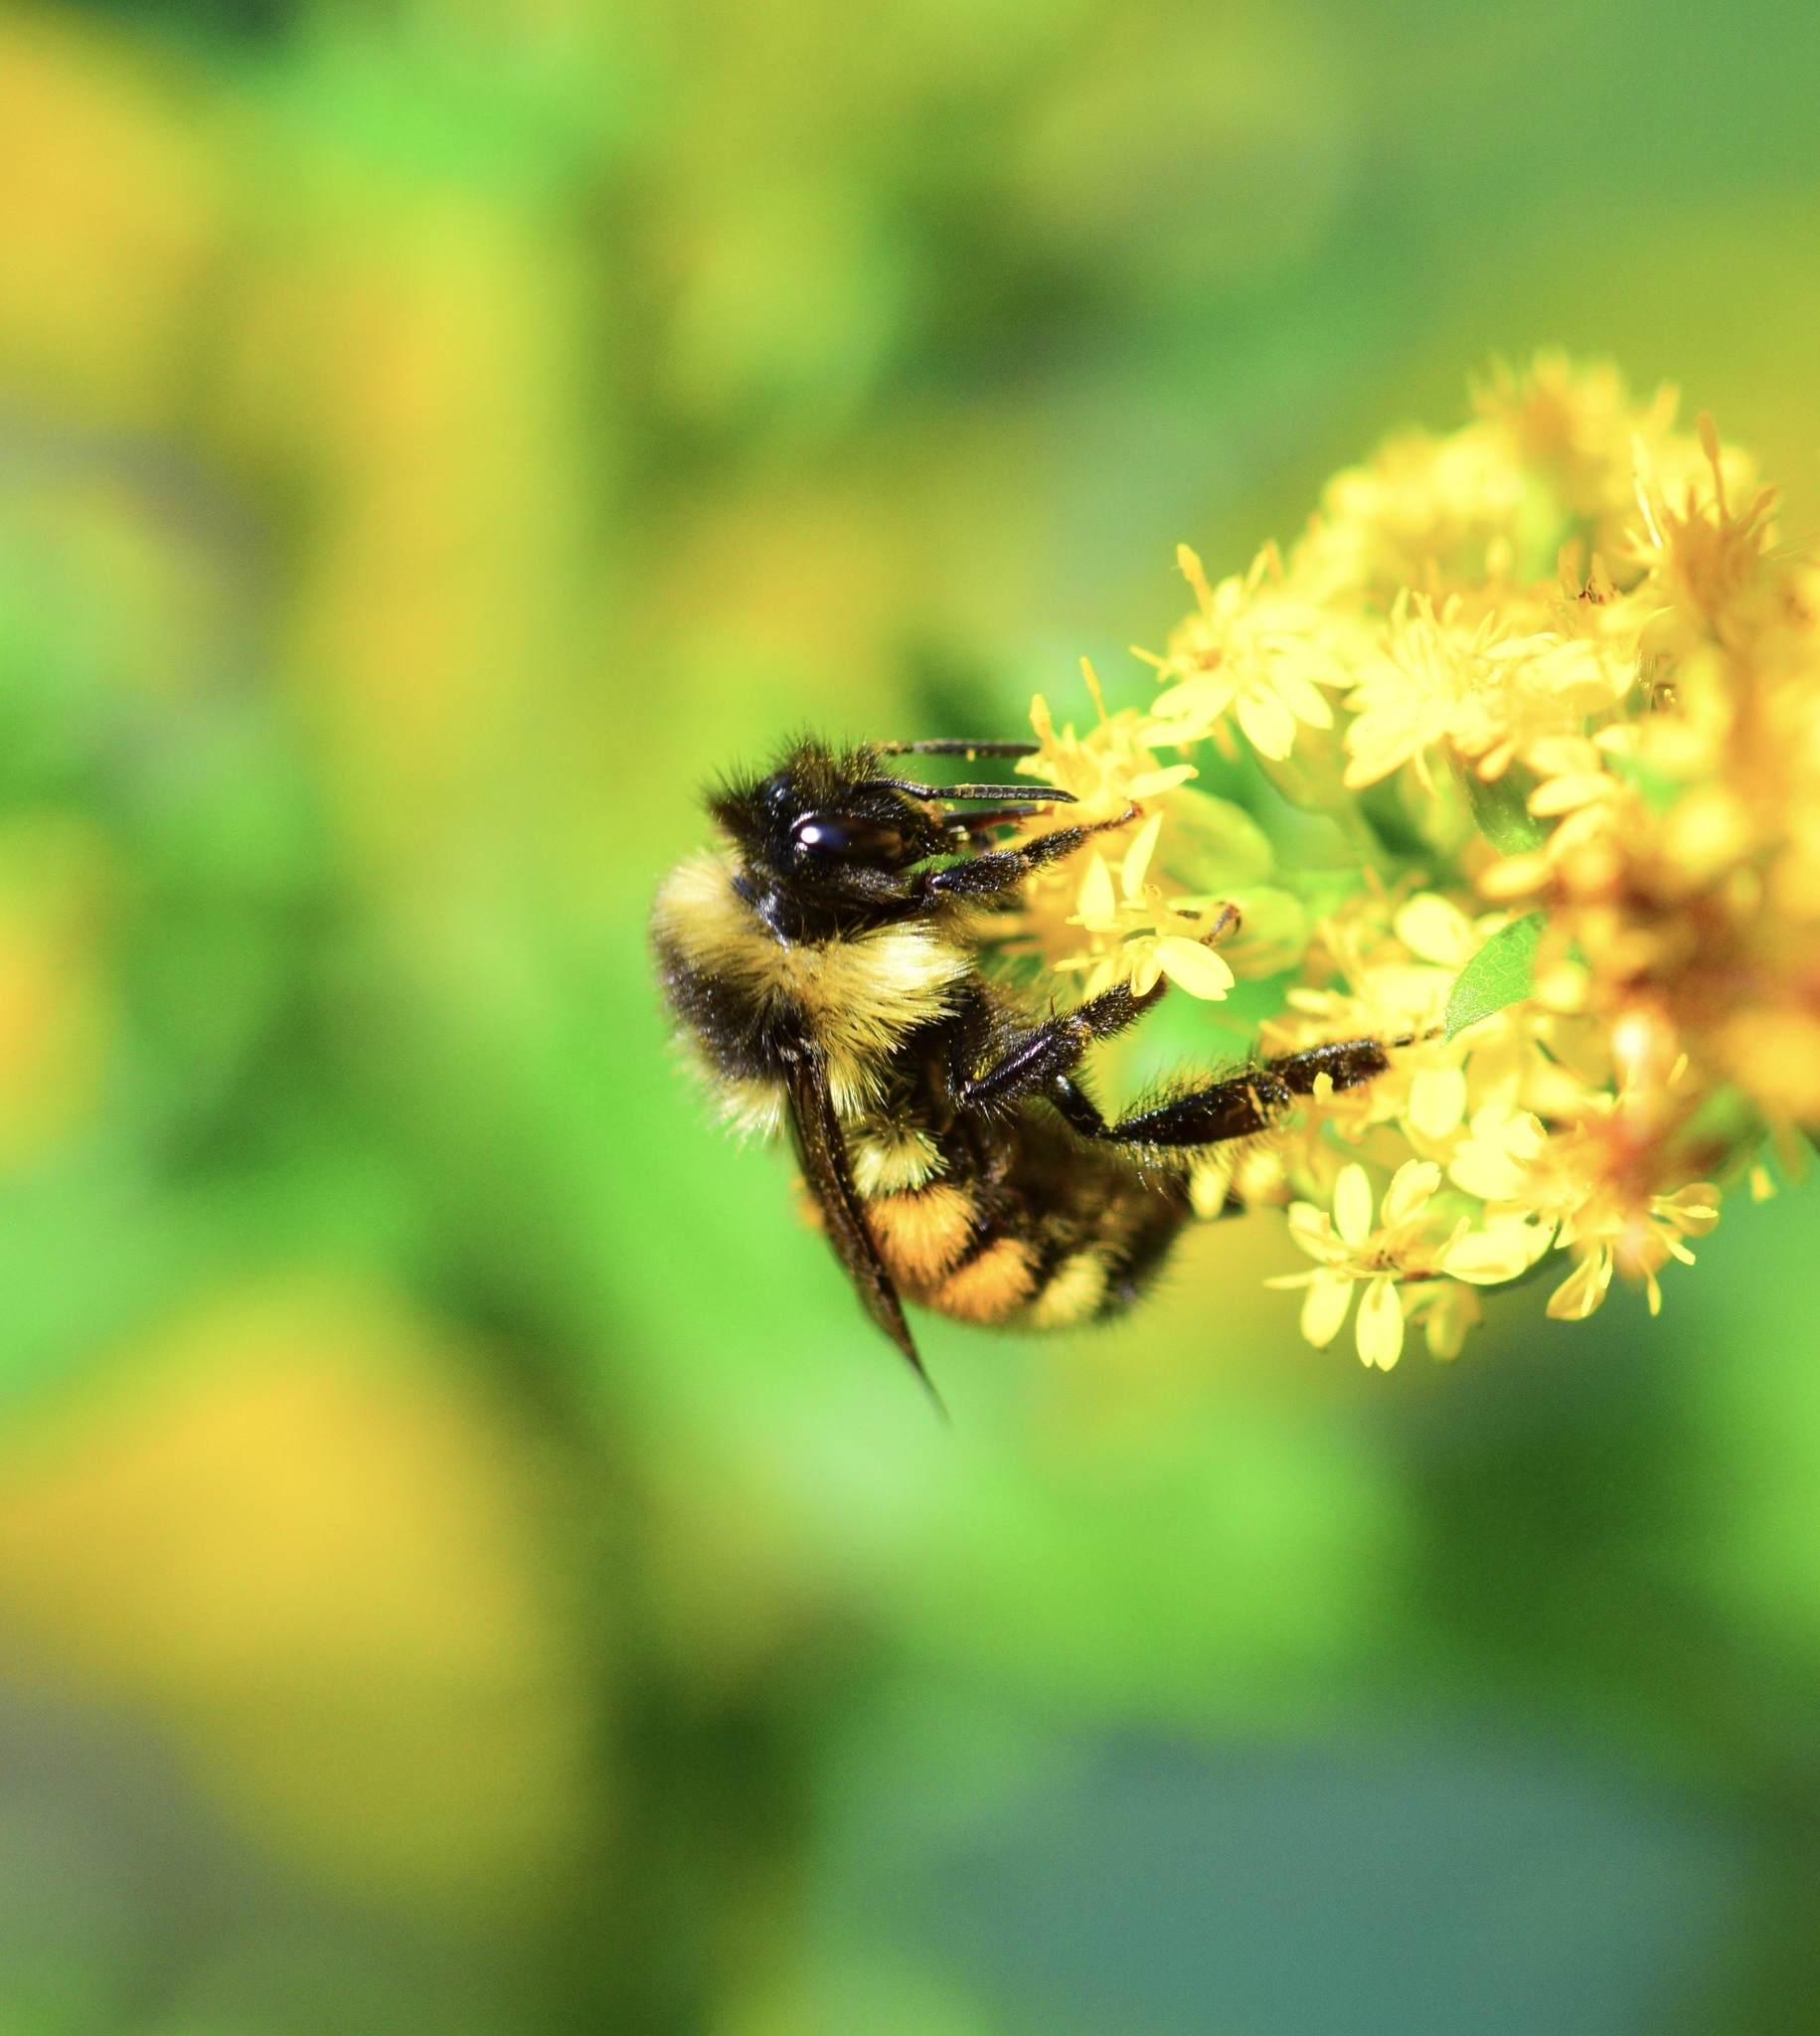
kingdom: Animalia
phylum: Arthropoda
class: Insecta
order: Hymenoptera
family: Apidae
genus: Bombus
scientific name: Bombus ternarius
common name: Tri-colored bumble bee
